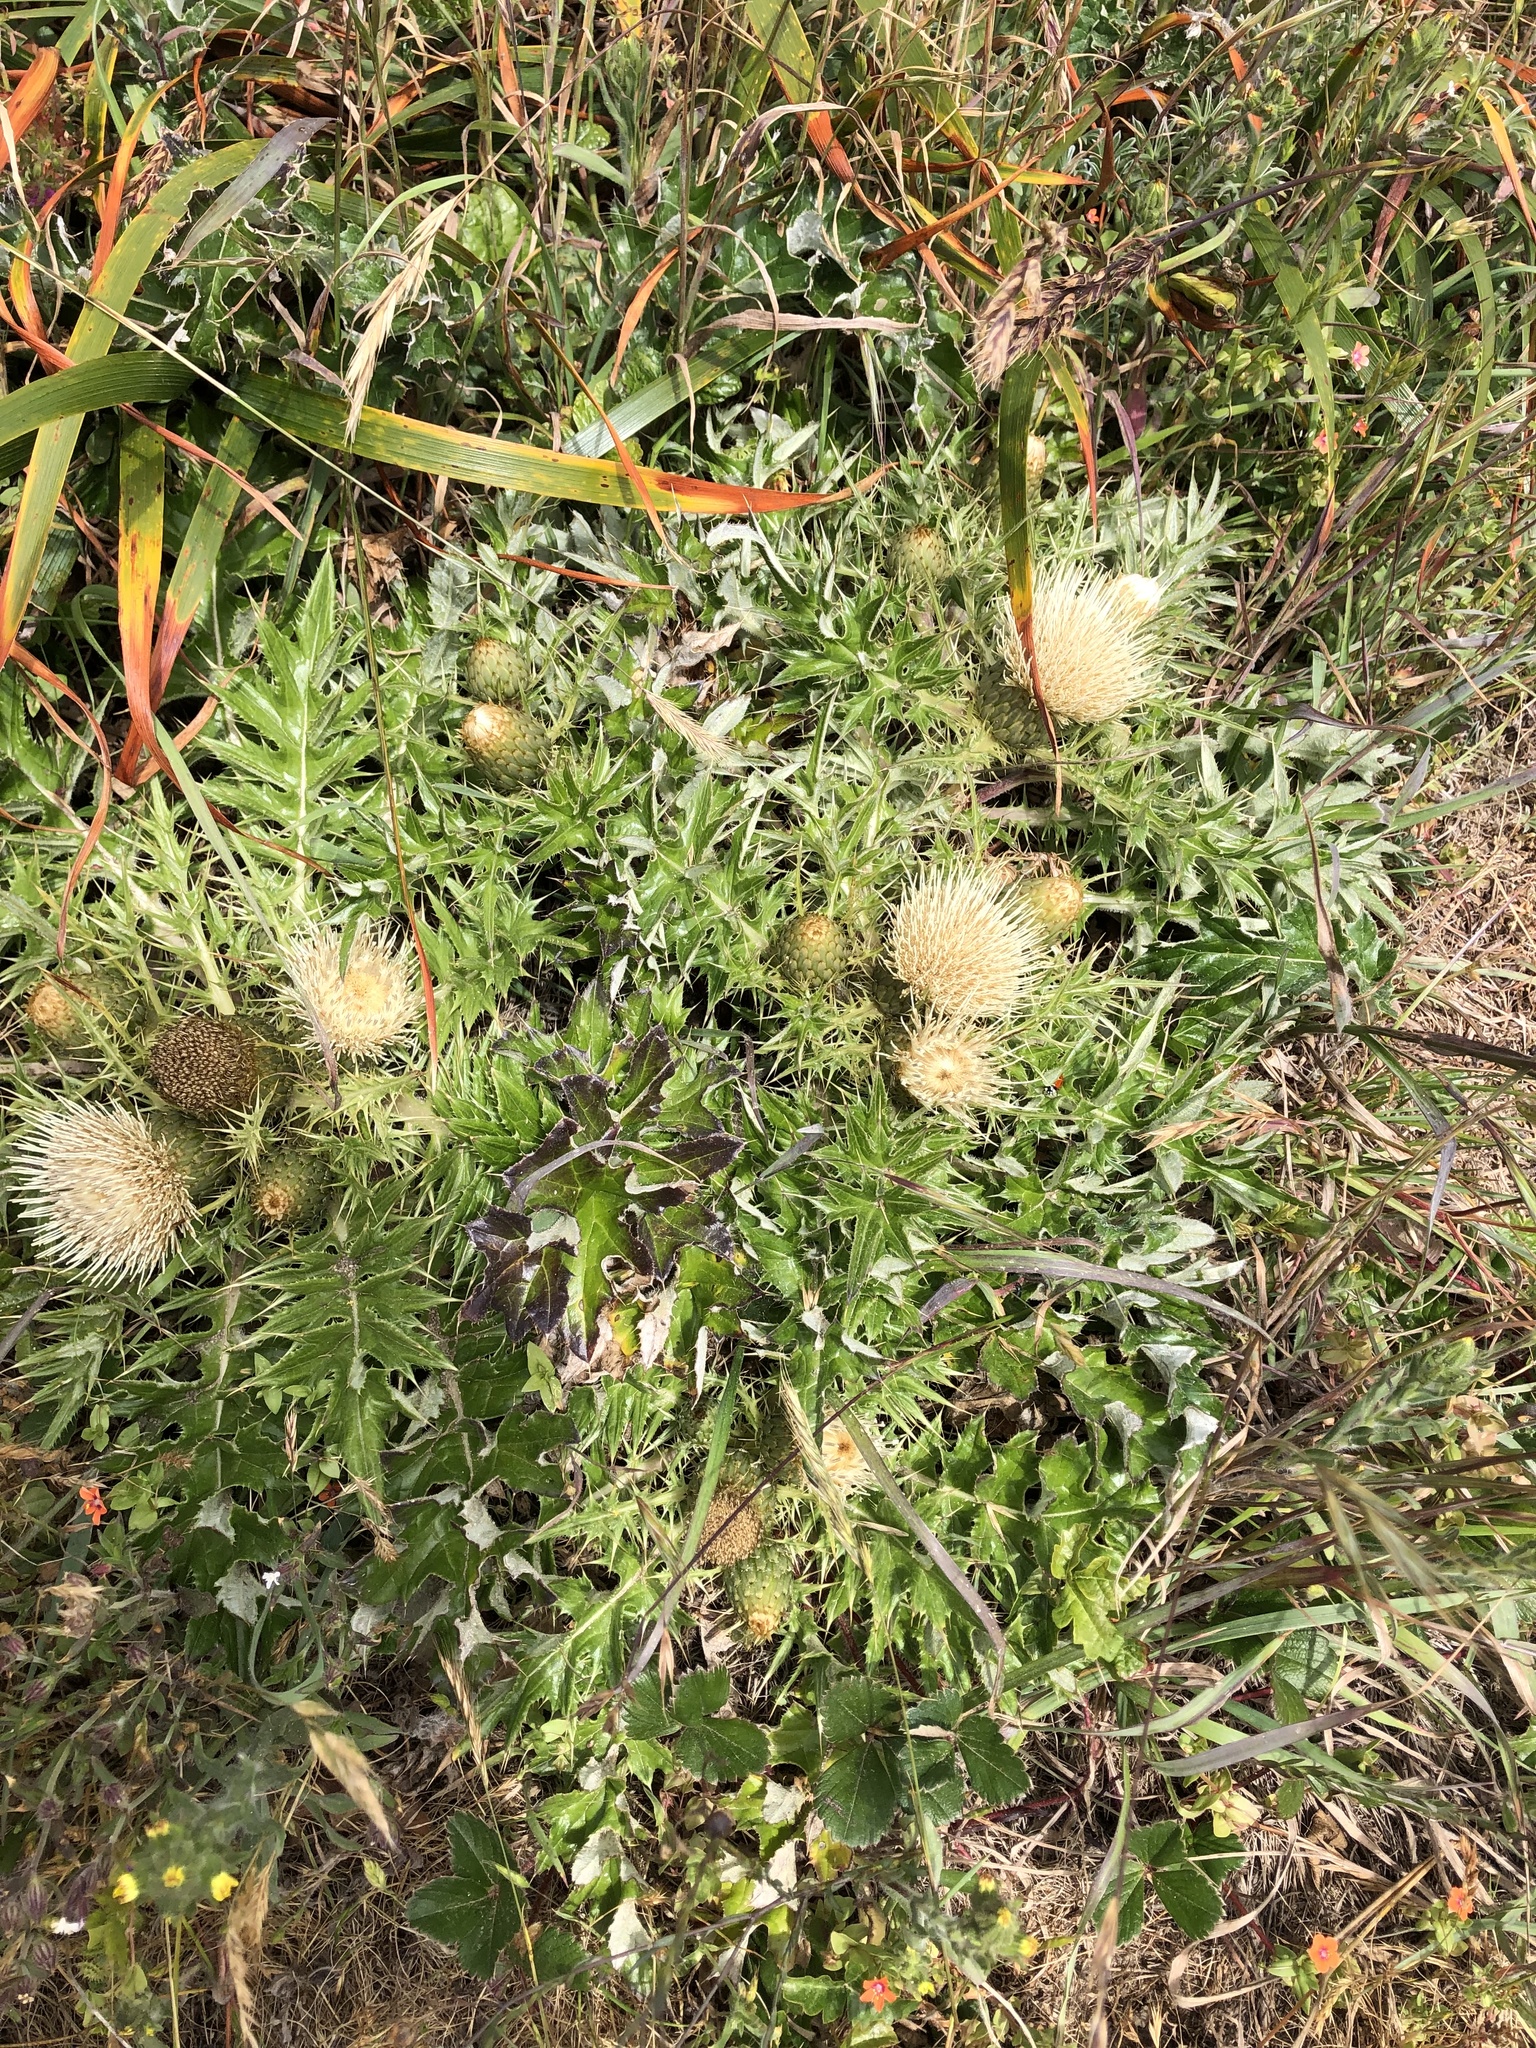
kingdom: Plantae
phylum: Tracheophyta
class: Magnoliopsida
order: Asterales
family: Asteraceae
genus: Cirsium
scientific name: Cirsium quercetorum
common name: Alameda county thistle
